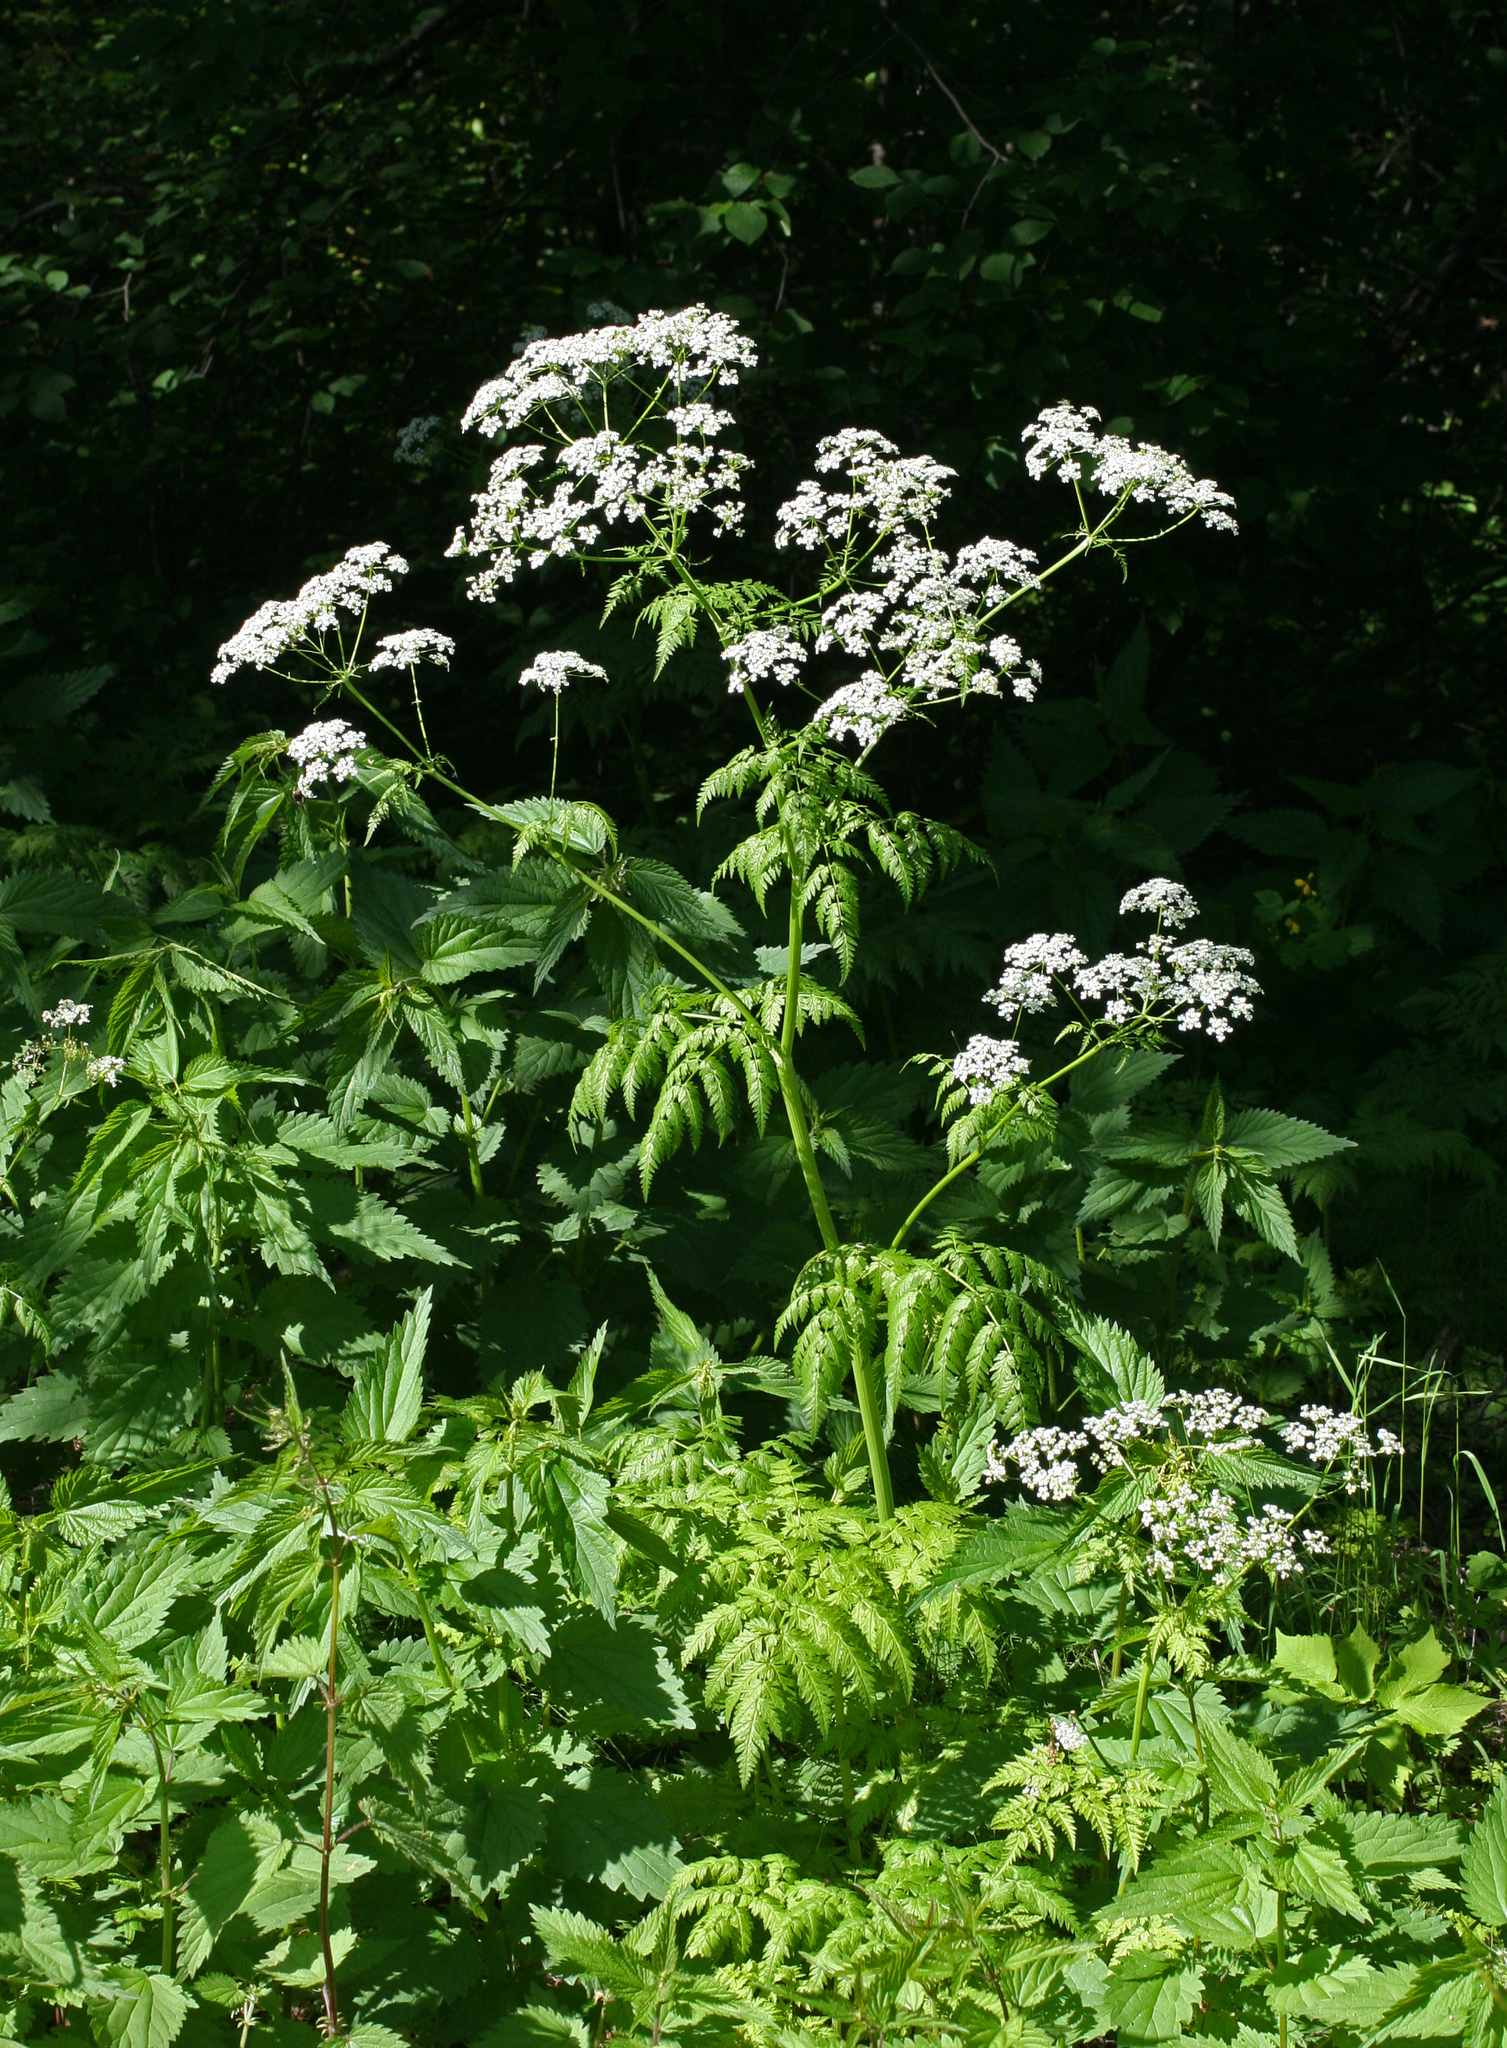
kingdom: Plantae
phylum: Tracheophyta
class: Magnoliopsida
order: Apiales
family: Apiaceae
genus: Anthriscus
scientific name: Anthriscus sylvestris
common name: Cow parsley
